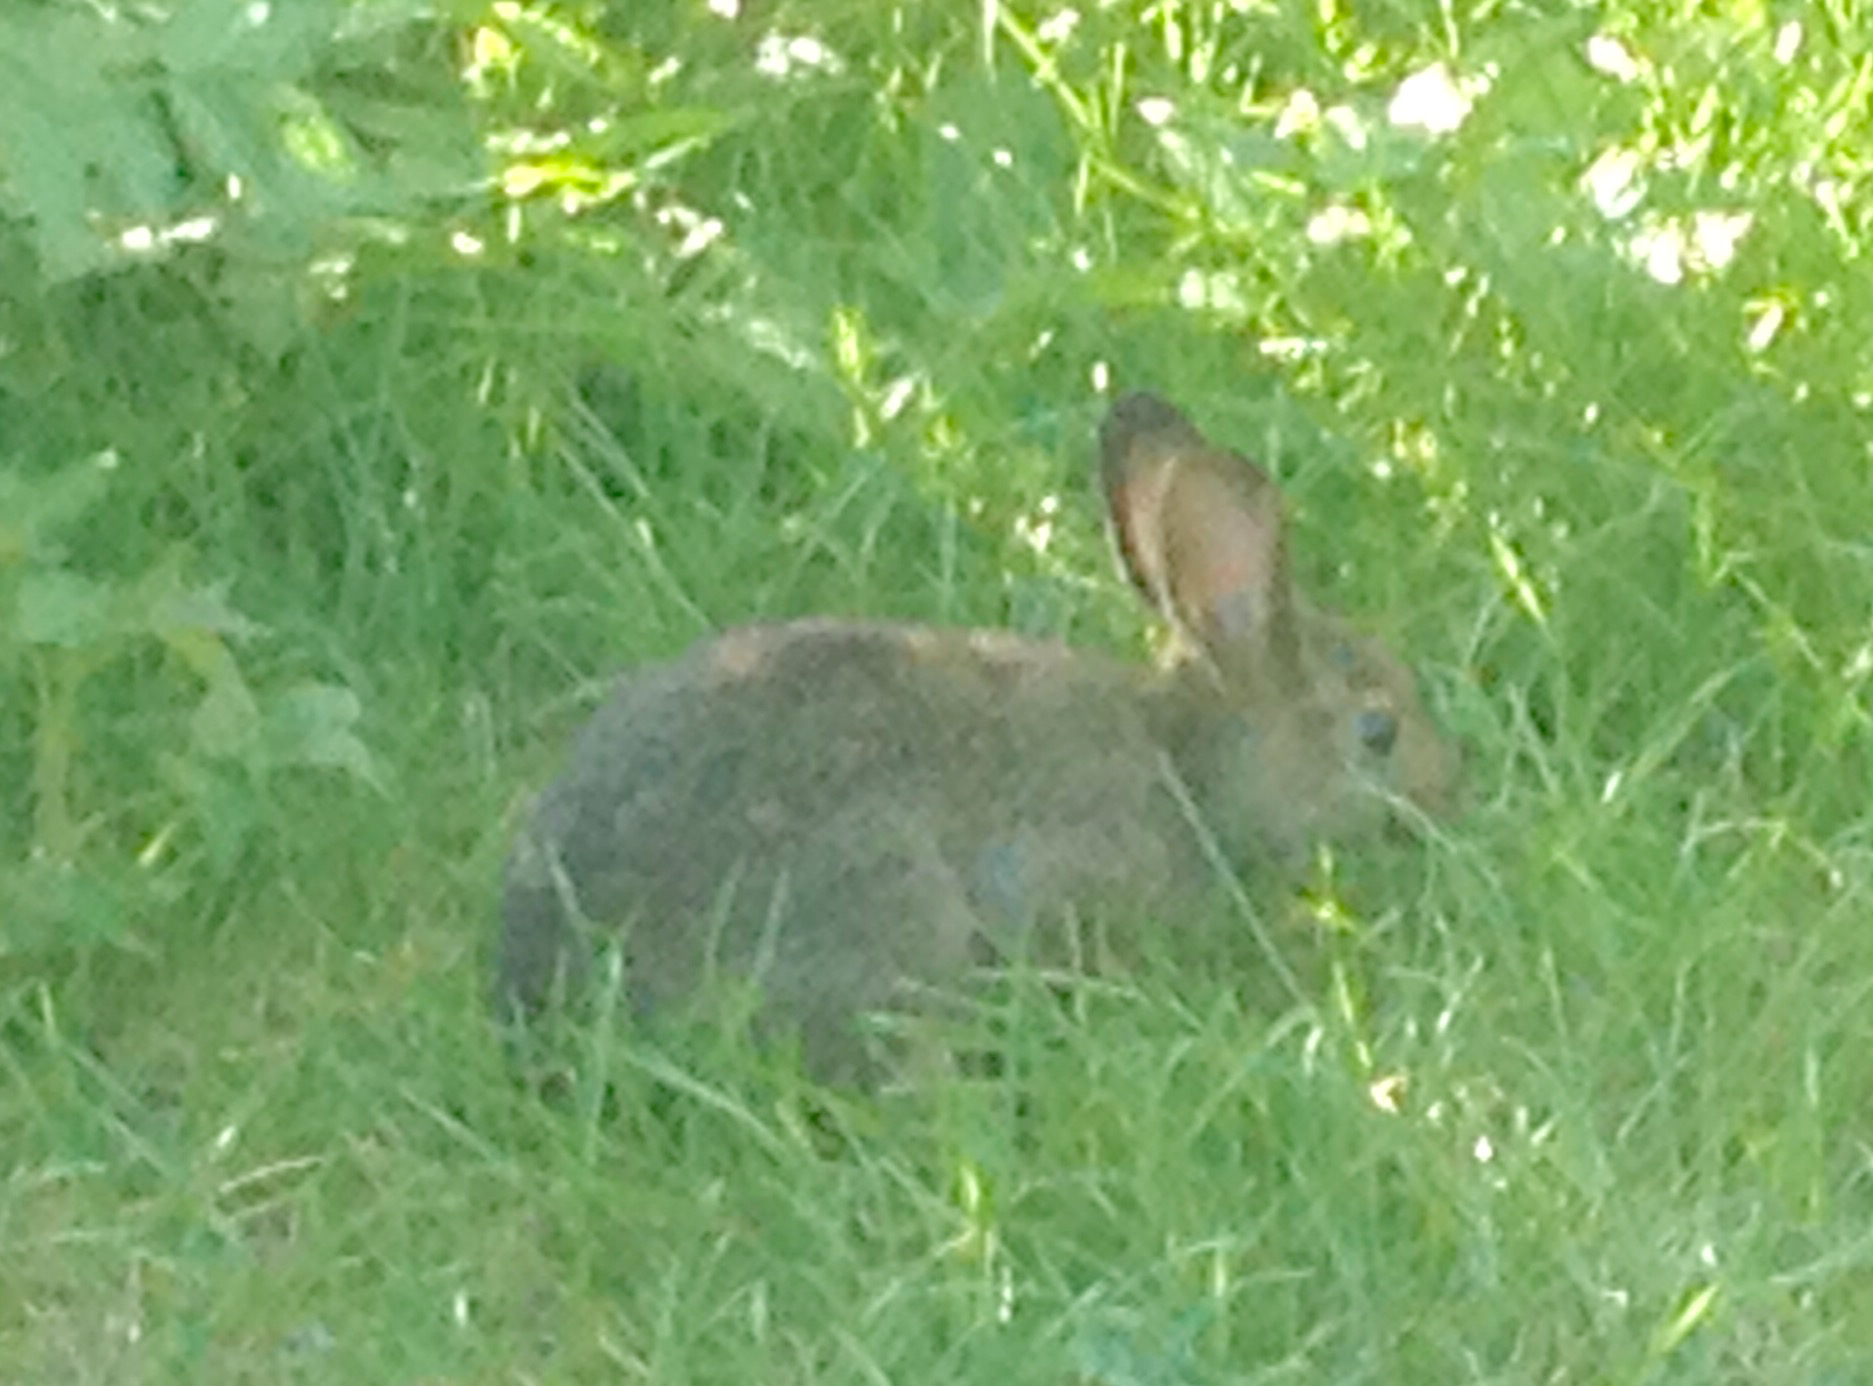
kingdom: Animalia
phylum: Chordata
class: Mammalia
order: Lagomorpha
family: Leporidae
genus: Lepus
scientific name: Lepus americanus
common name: Snowshoe hare
